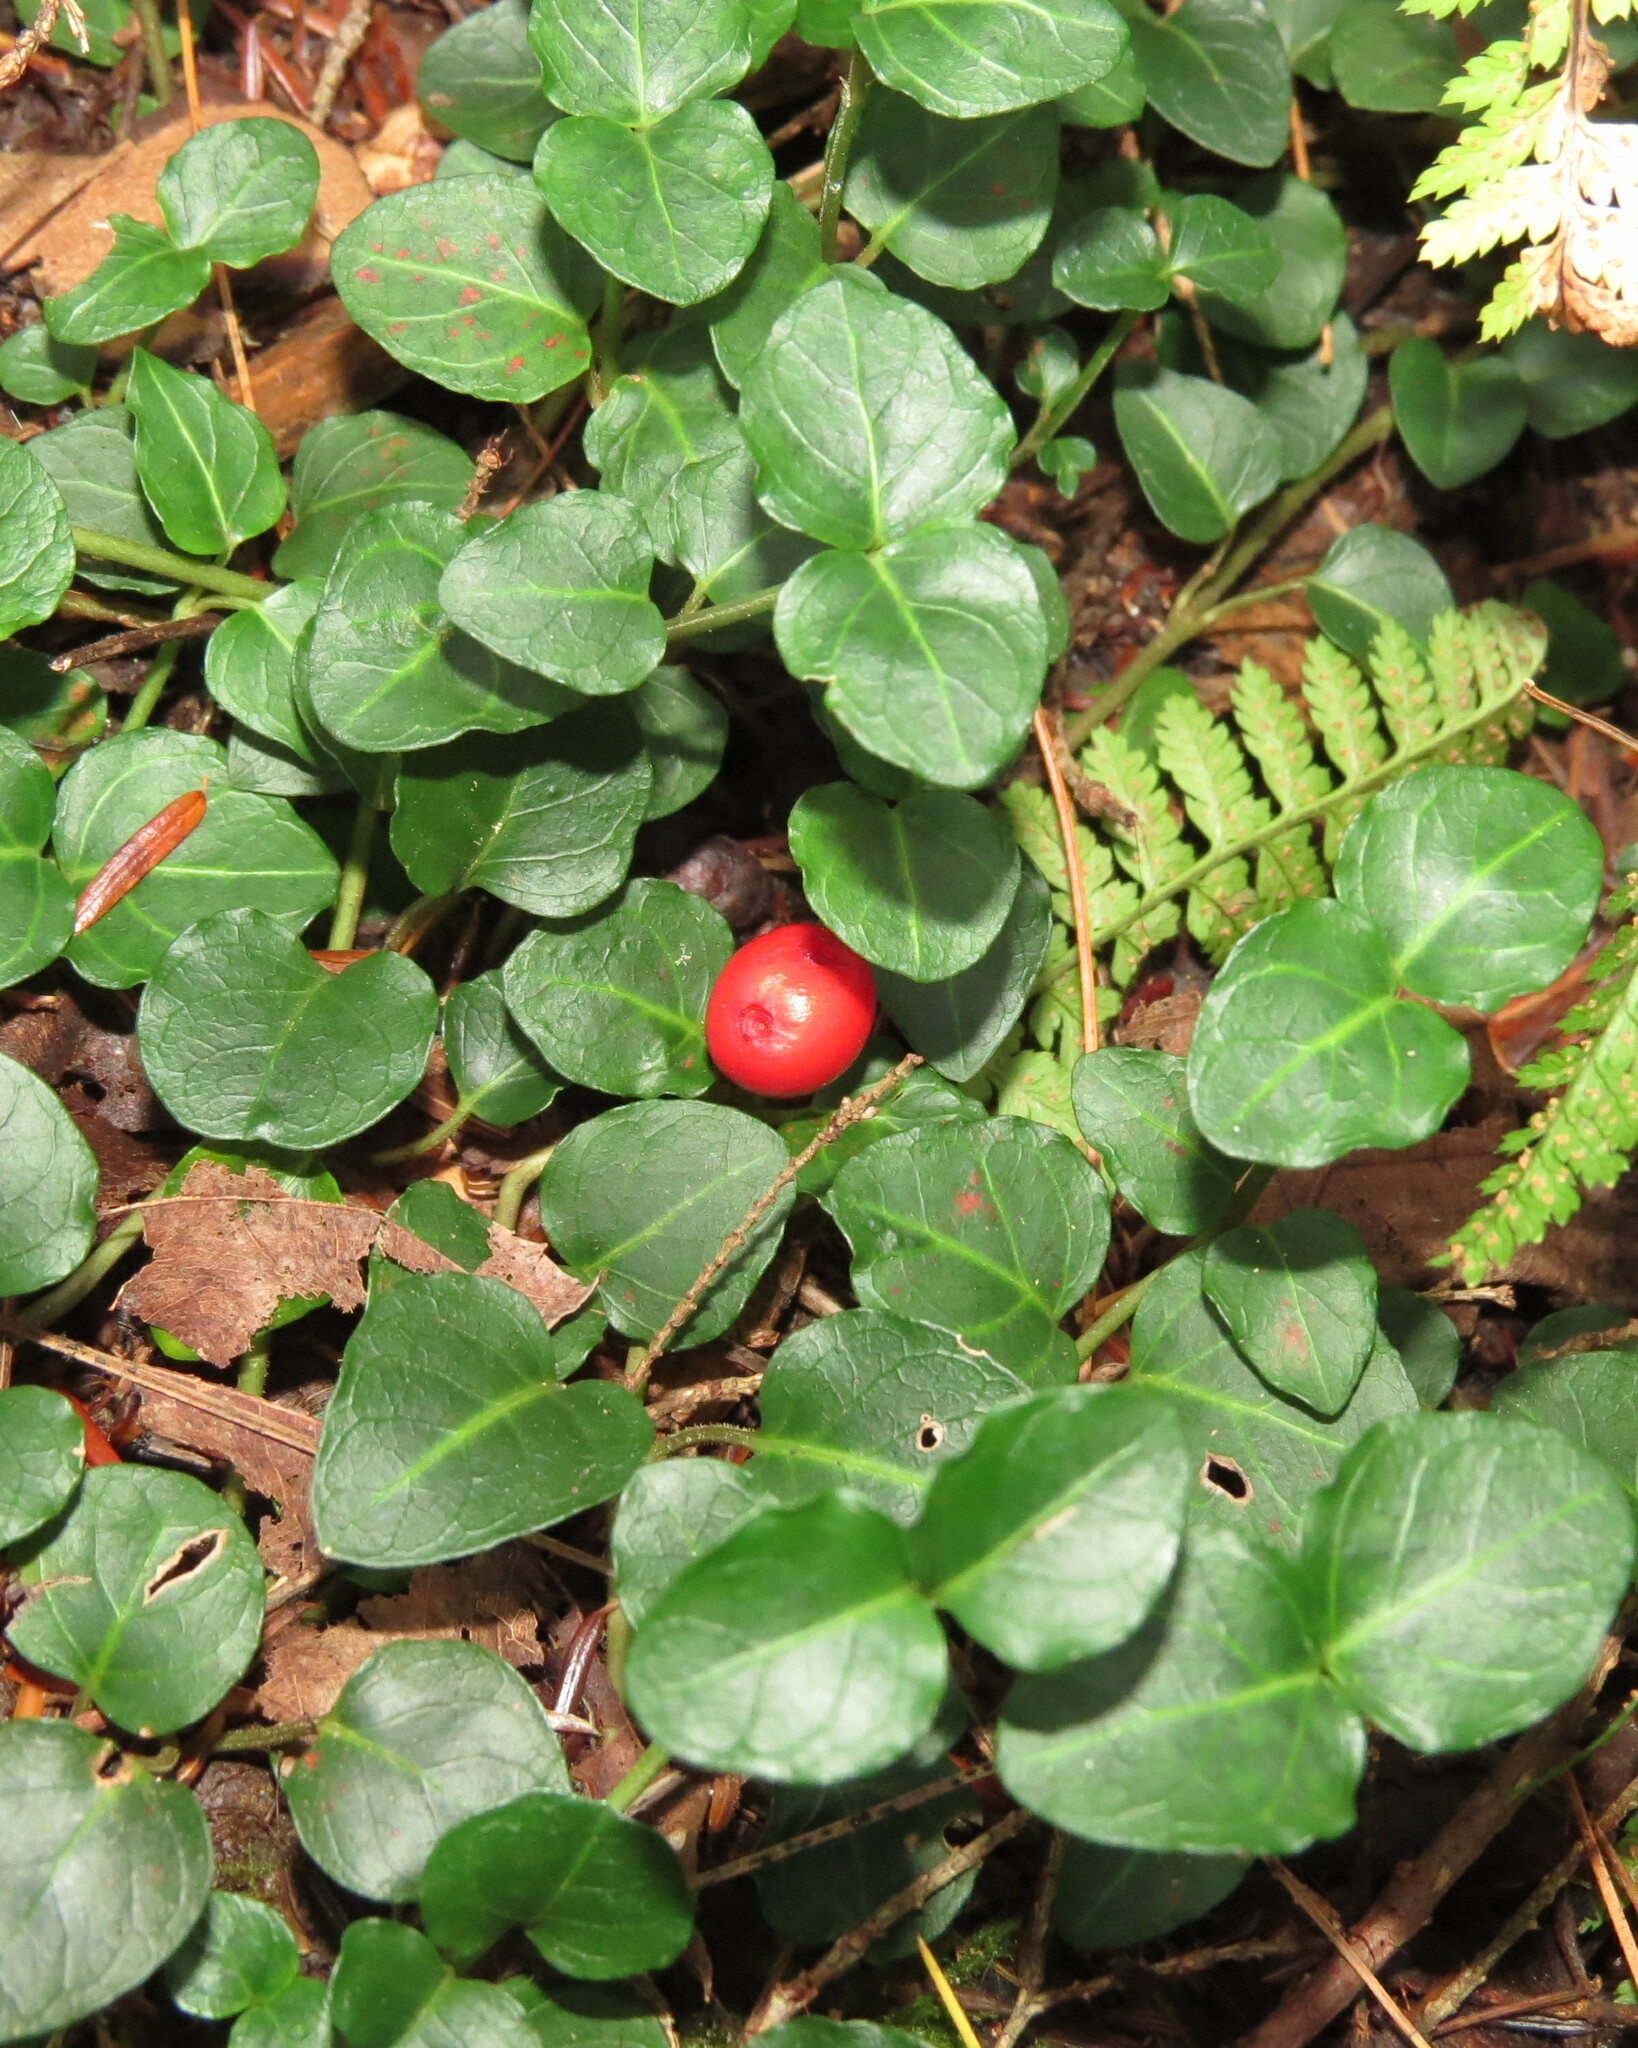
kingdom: Plantae
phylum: Tracheophyta
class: Magnoliopsida
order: Gentianales
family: Rubiaceae
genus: Mitchella
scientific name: Mitchella repens
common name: Partridge-berry
